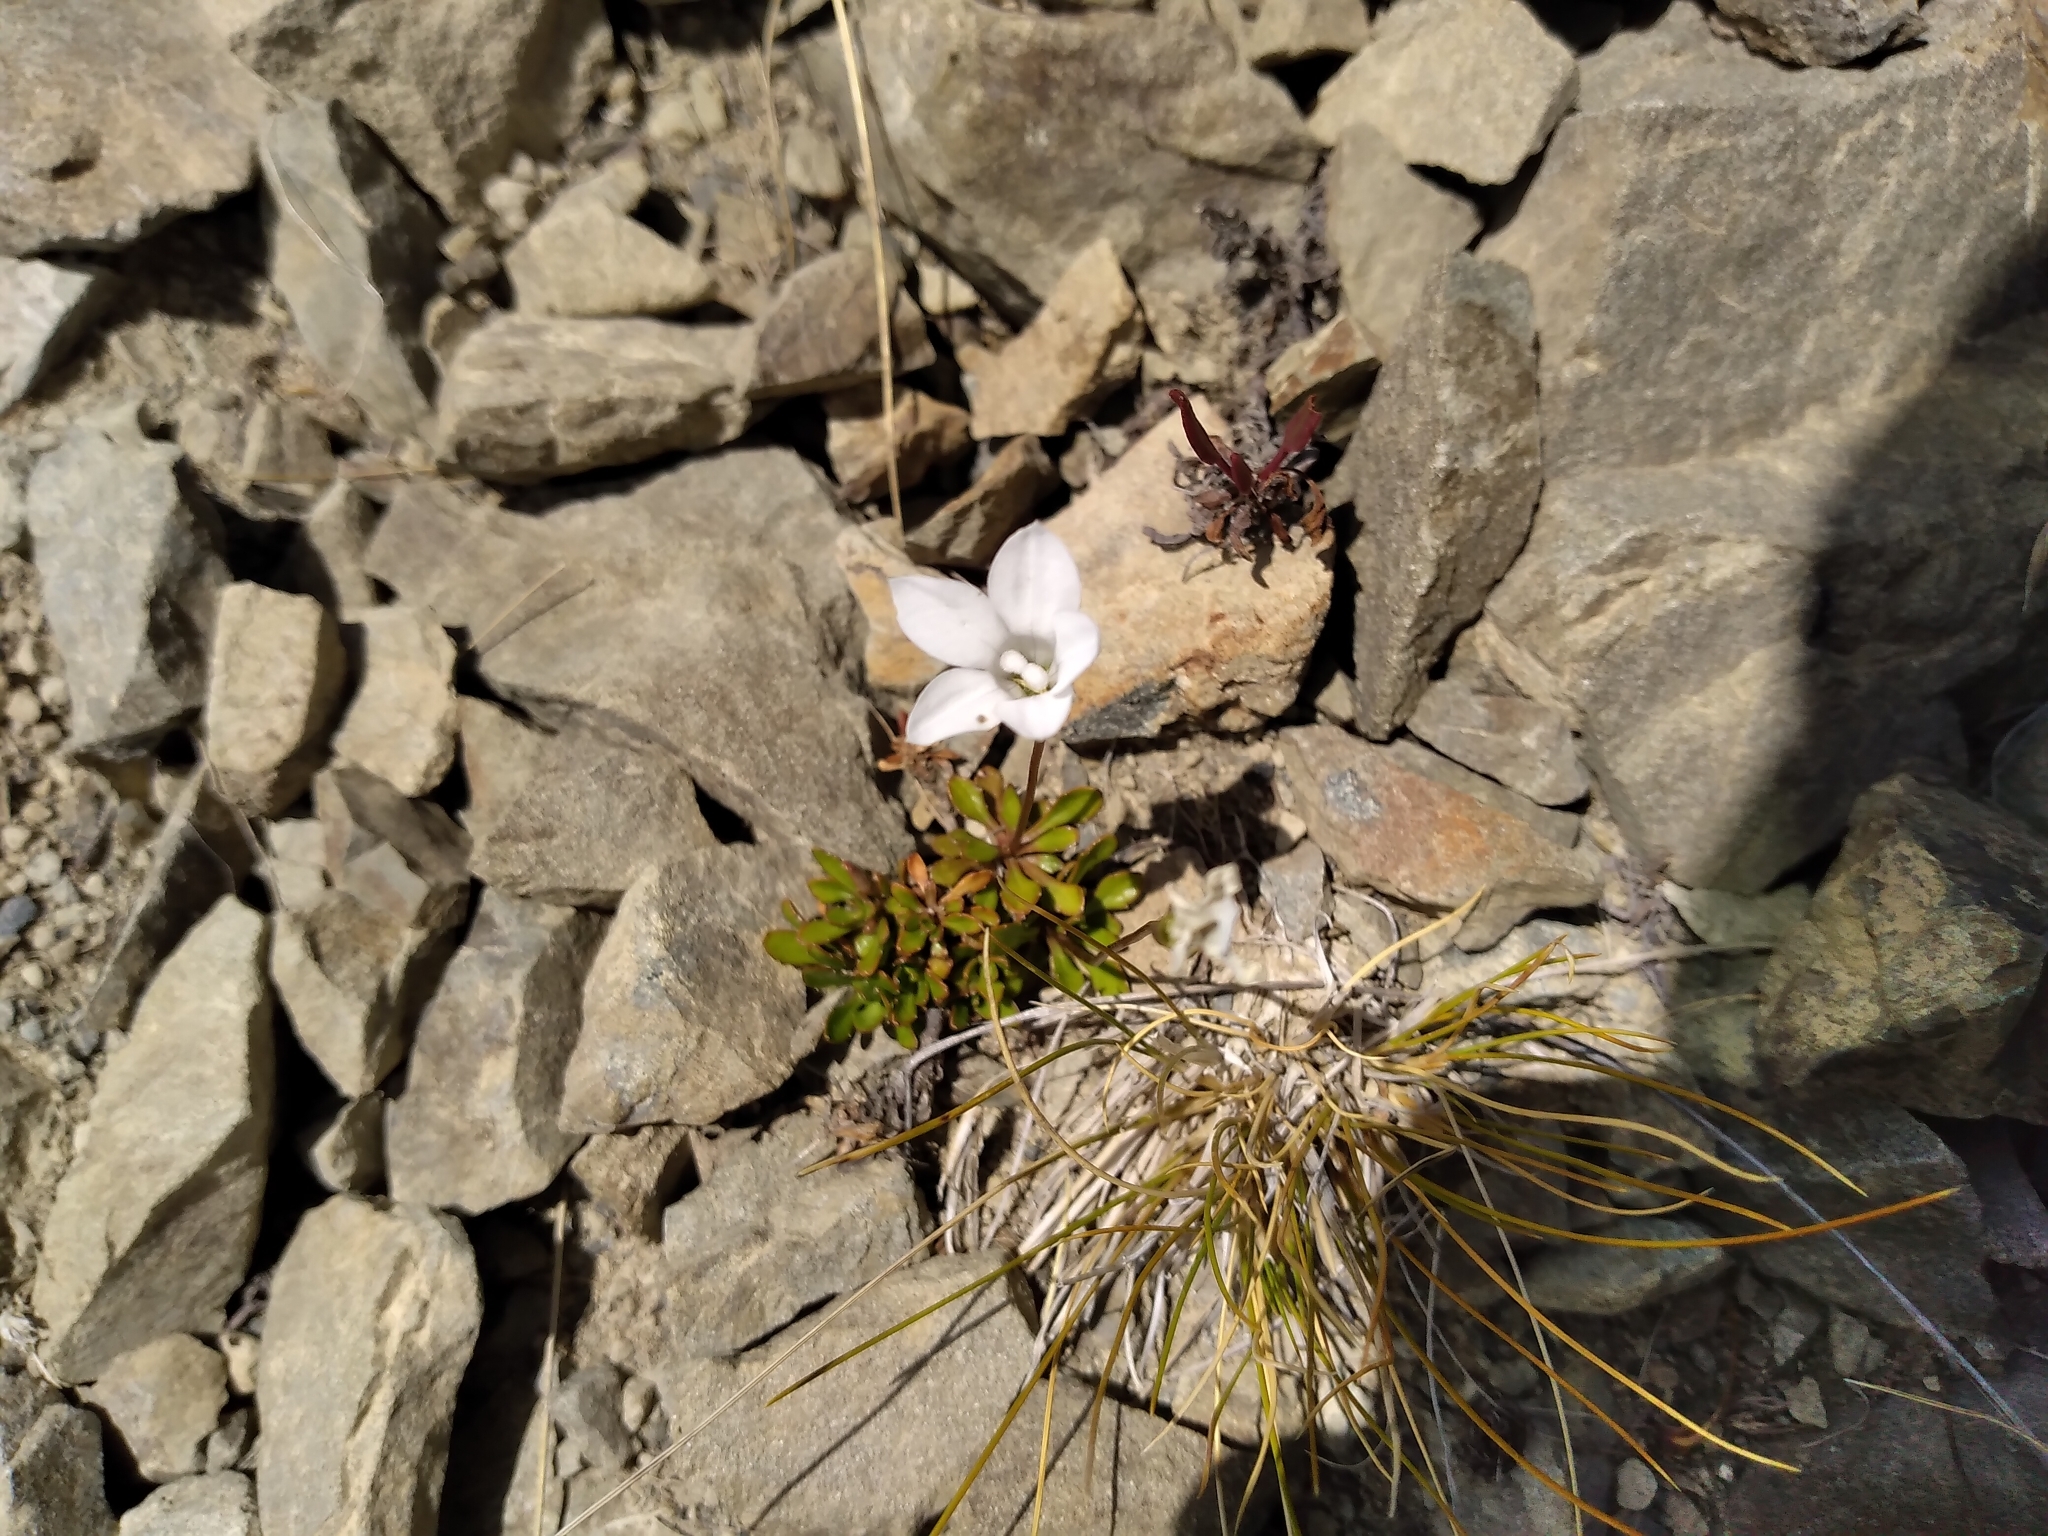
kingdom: Plantae
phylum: Tracheophyta
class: Magnoliopsida
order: Asterales
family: Campanulaceae
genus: Wahlenbergia
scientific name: Wahlenbergia albomarginata
